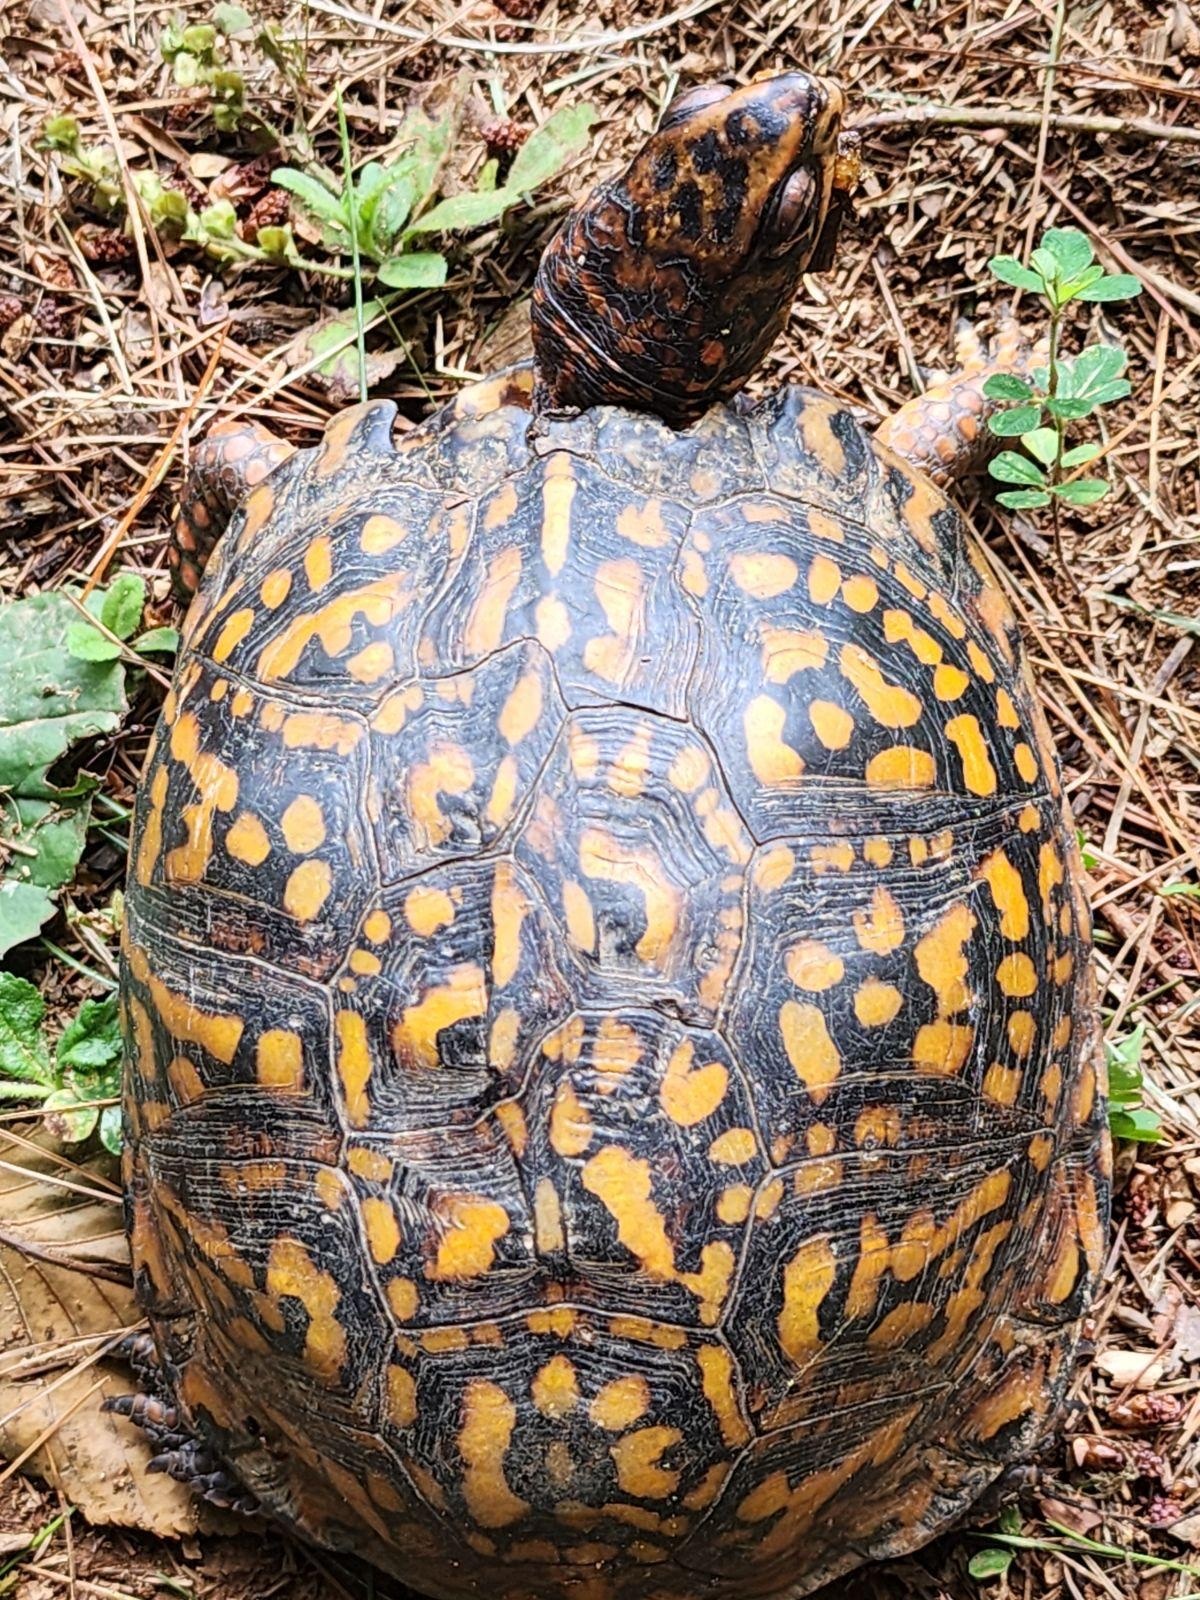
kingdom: Animalia
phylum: Chordata
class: Testudines
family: Emydidae
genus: Terrapene
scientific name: Terrapene carolina
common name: Common box turtle
